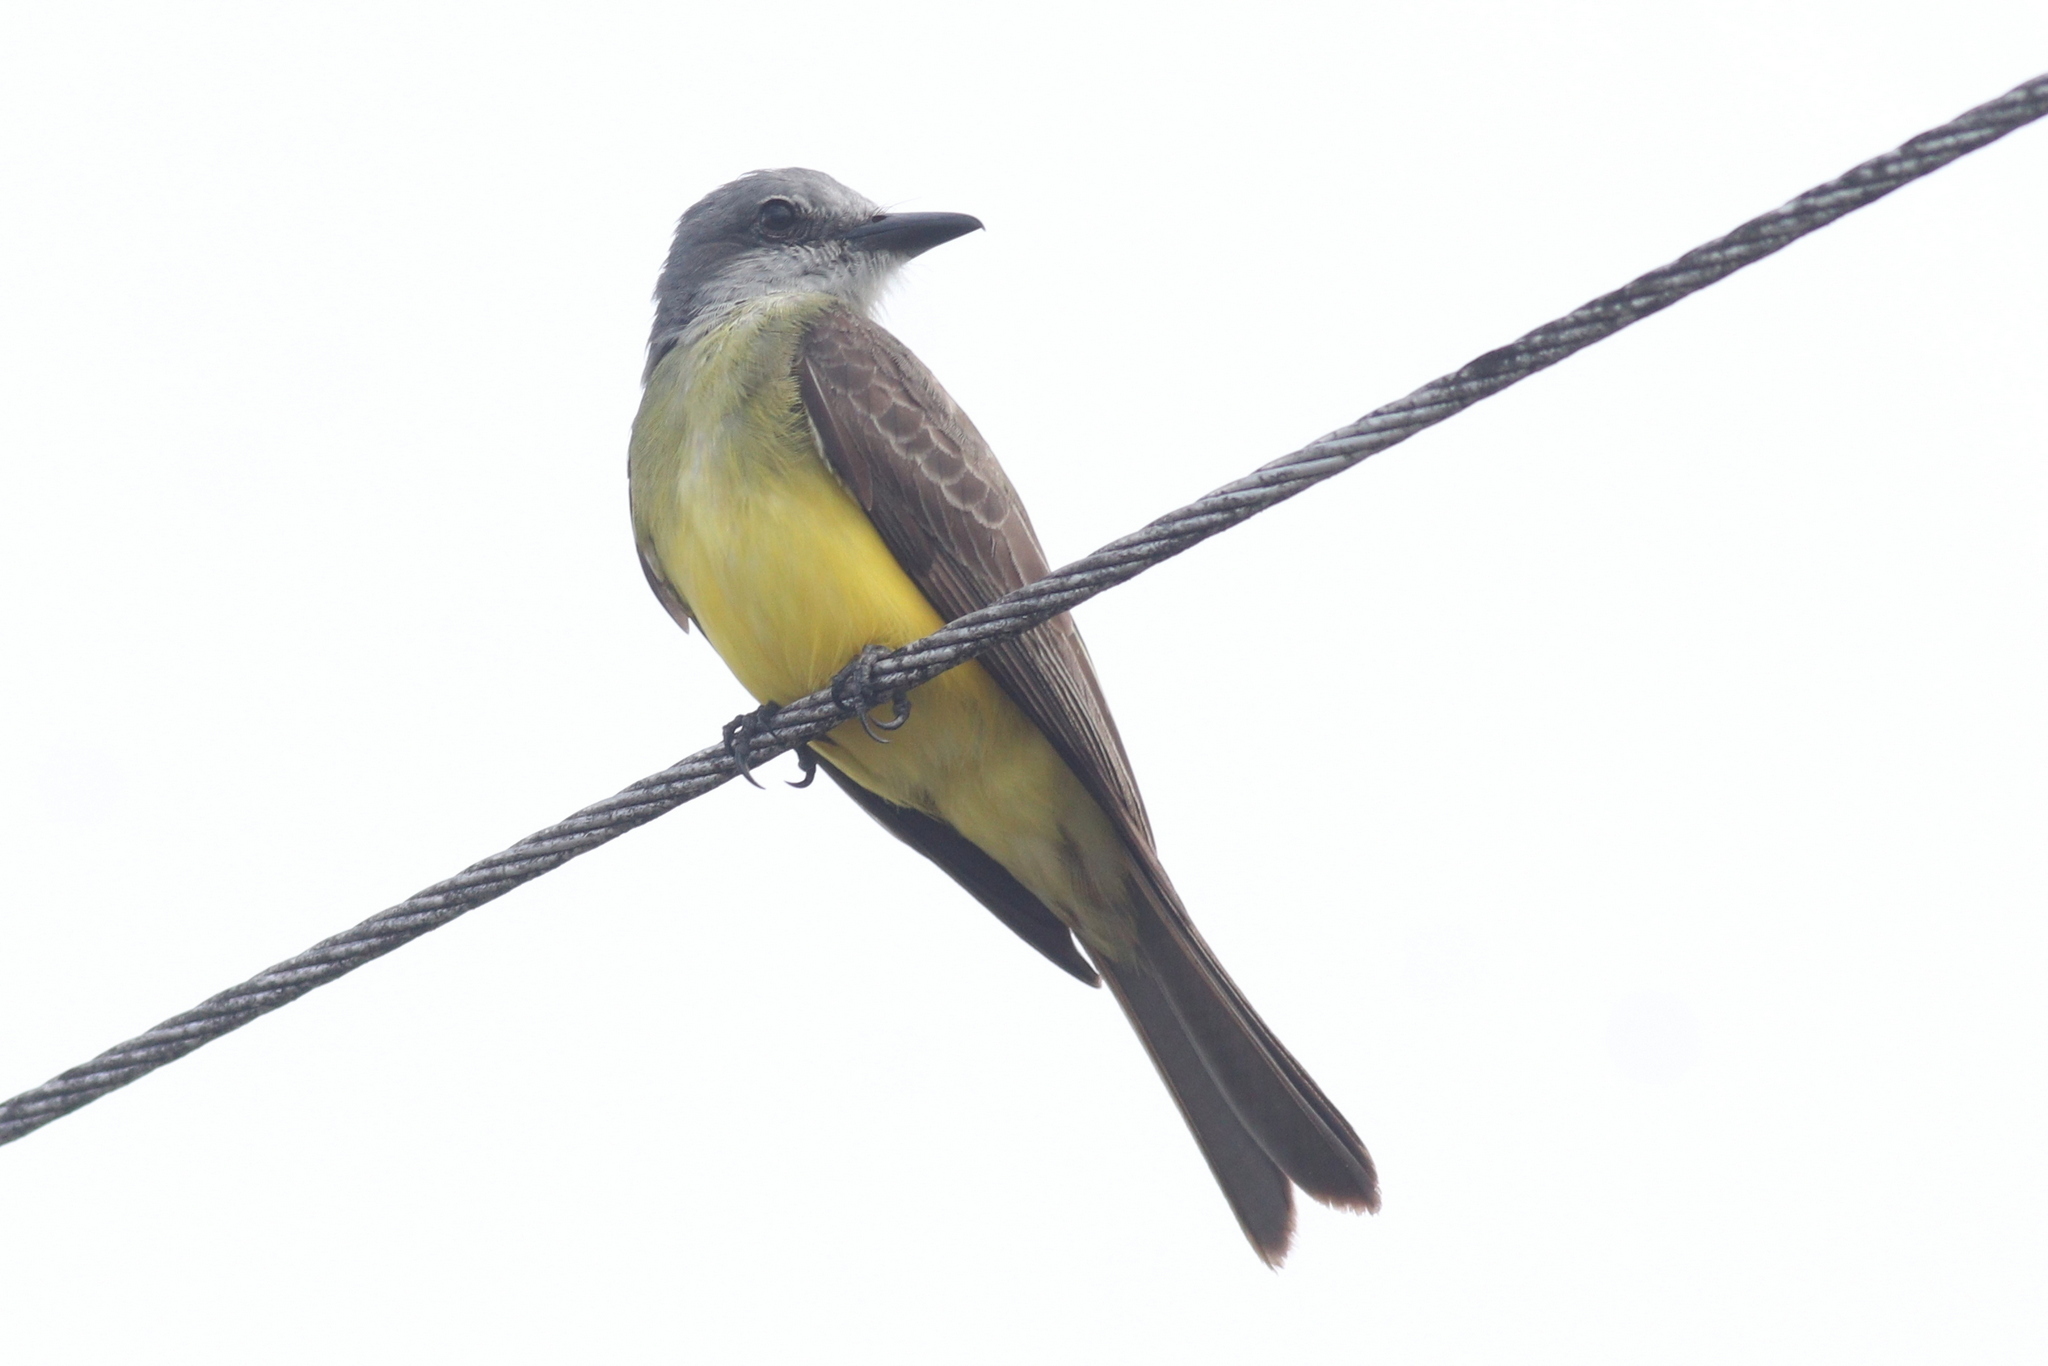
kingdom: Animalia
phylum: Chordata
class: Aves
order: Passeriformes
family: Tyrannidae
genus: Tyrannus
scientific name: Tyrannus melancholicus
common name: Tropical kingbird
